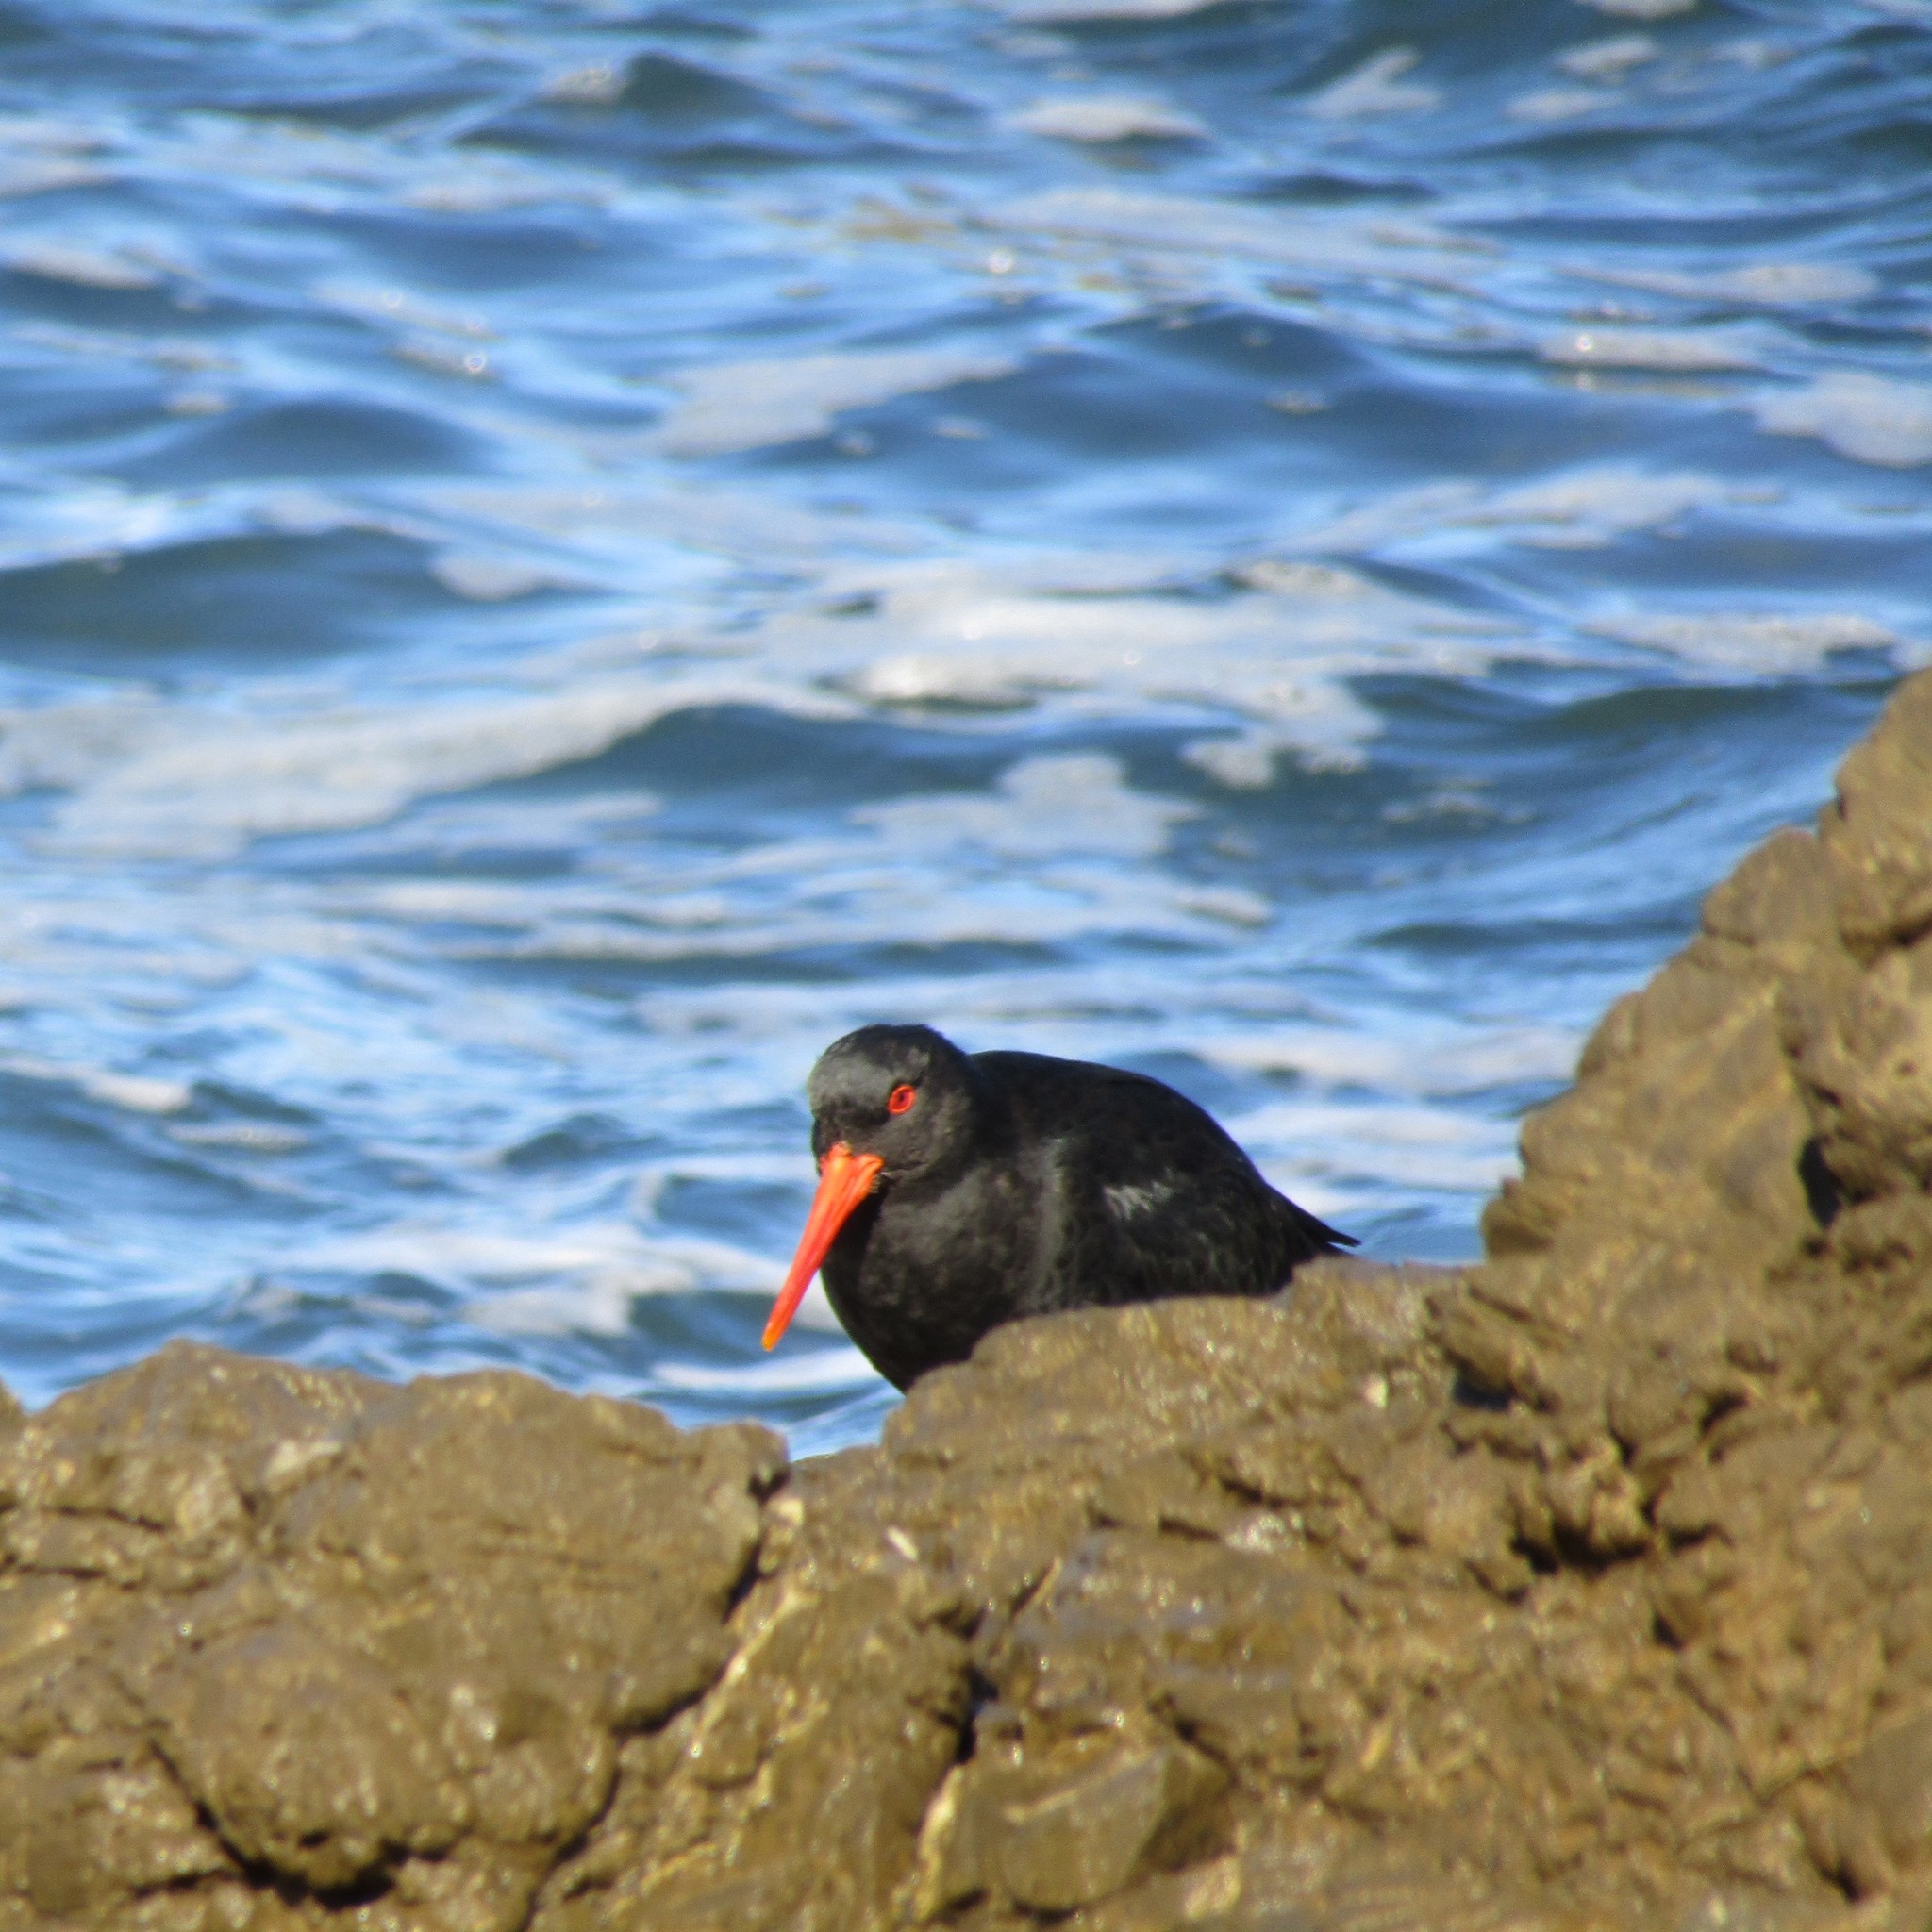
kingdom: Animalia
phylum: Chordata
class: Aves
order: Charadriiformes
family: Haematopodidae
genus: Haematopus
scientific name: Haematopus unicolor
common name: Variable oystercatcher
